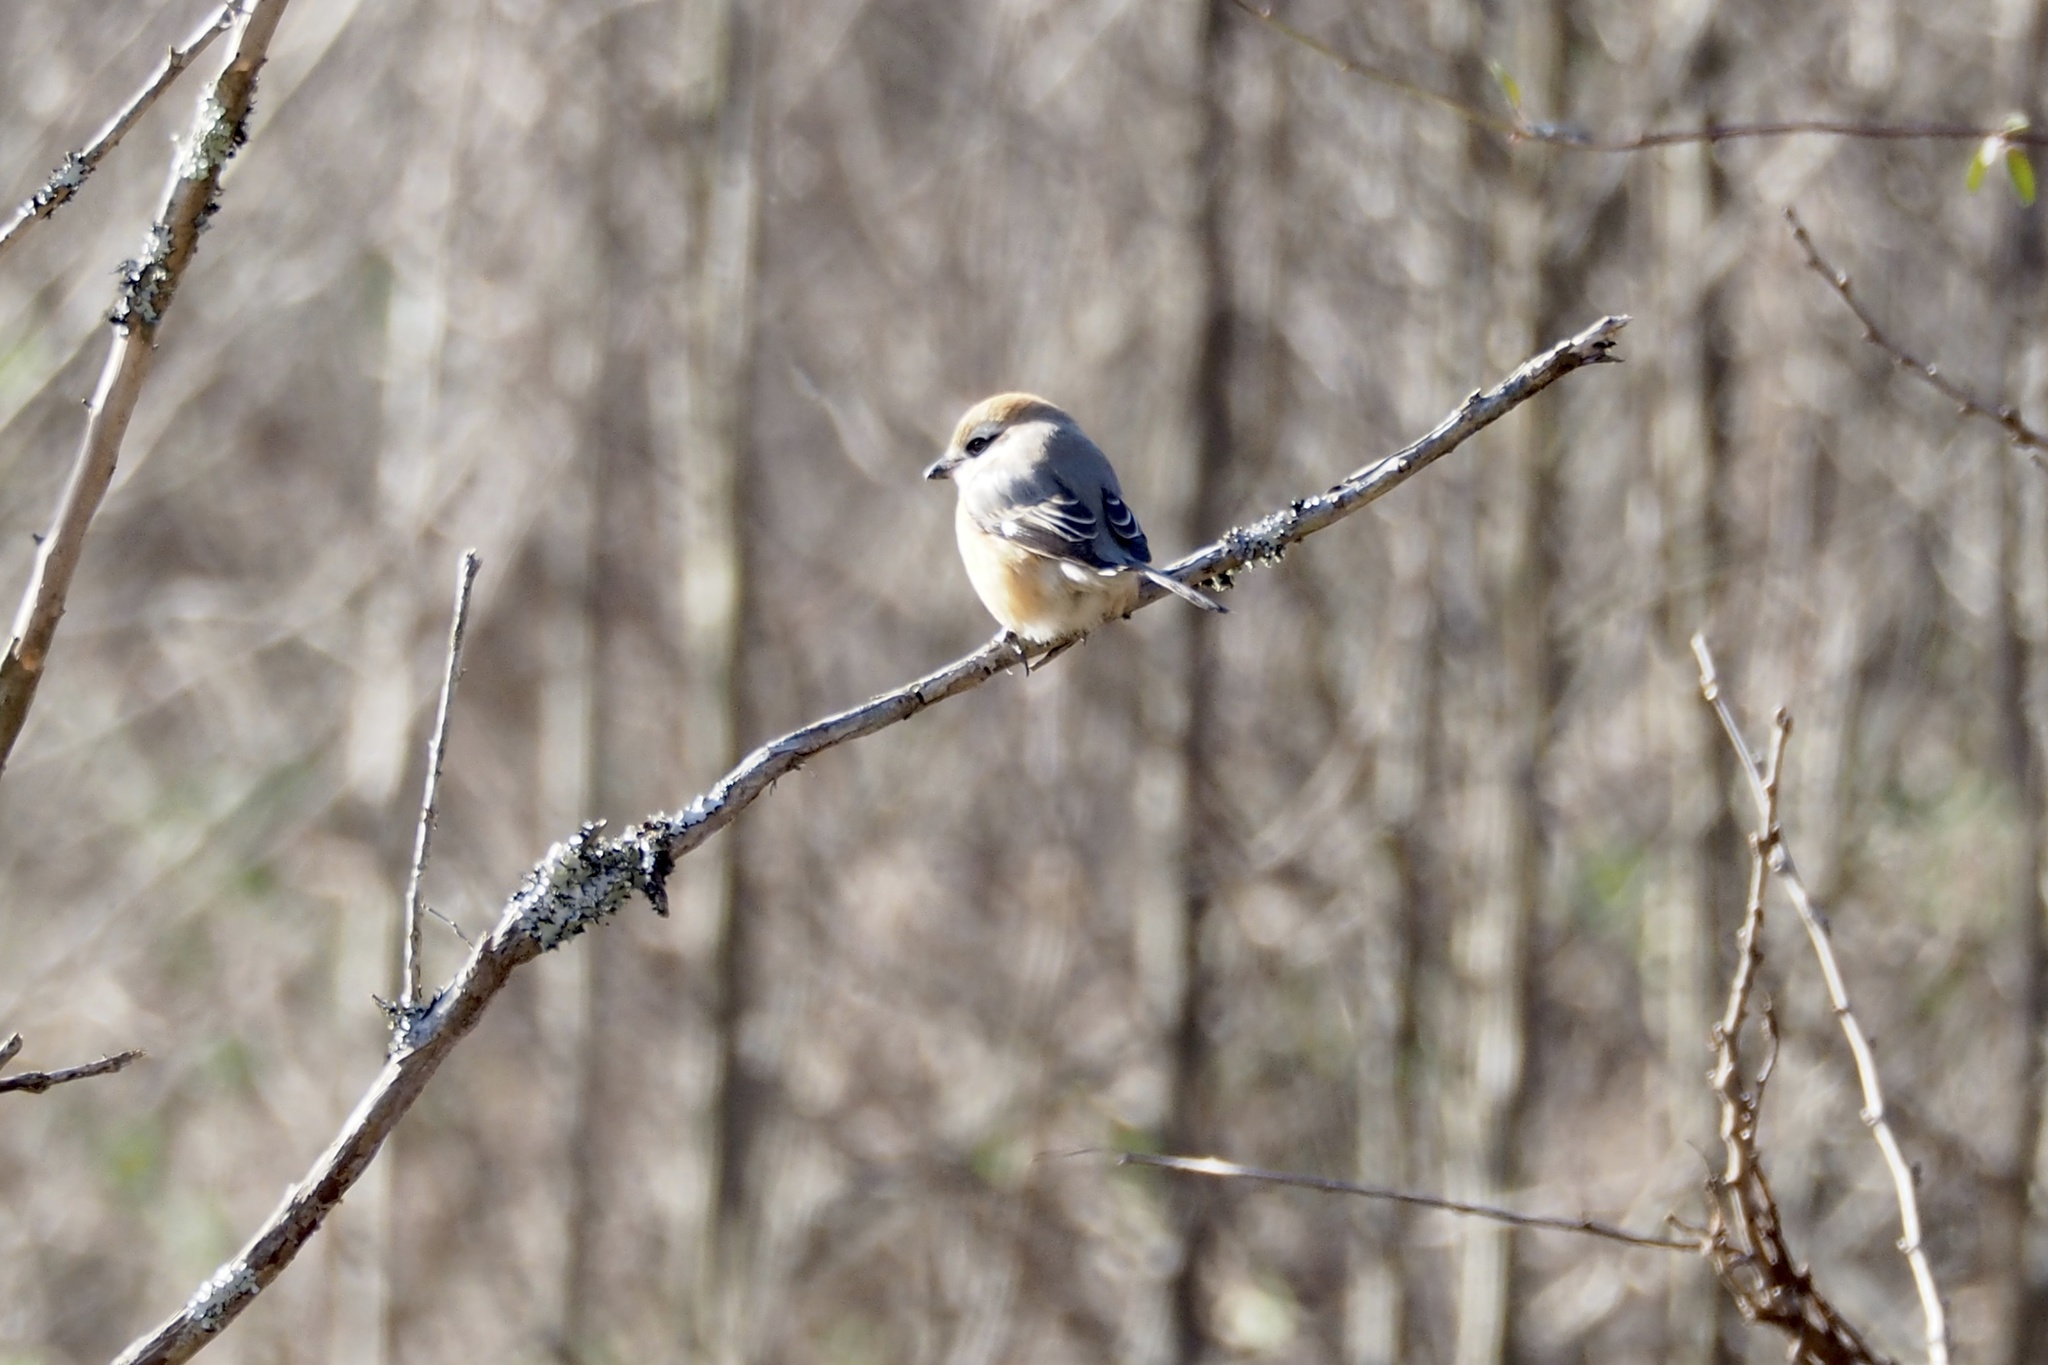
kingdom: Animalia
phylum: Chordata
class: Aves
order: Passeriformes
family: Laniidae
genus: Lanius
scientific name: Lanius bucephalus
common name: Bull-headed shrike
